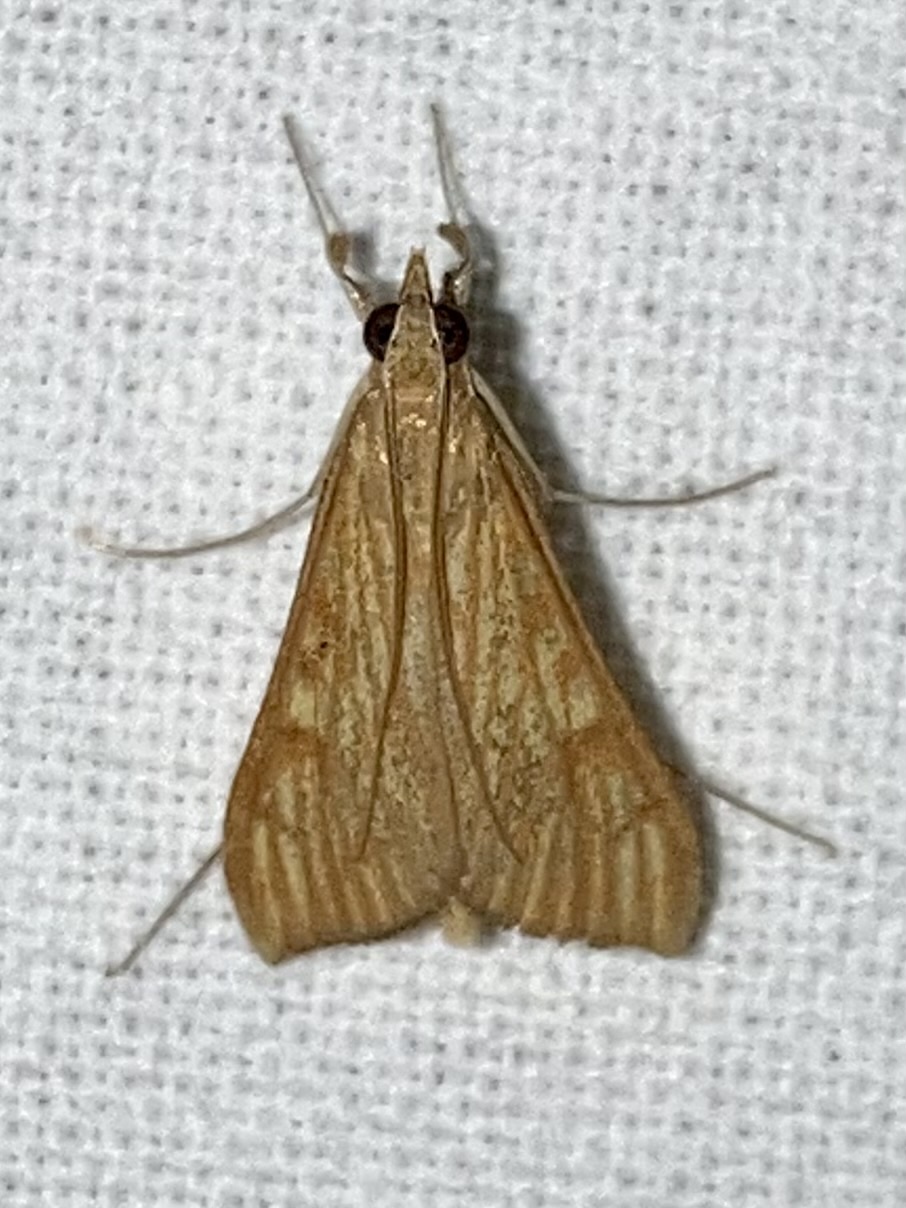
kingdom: Animalia
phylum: Arthropoda
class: Insecta
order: Lepidoptera
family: Crambidae
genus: Antigastra
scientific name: Antigastra catalaunalis
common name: Spanish dot
